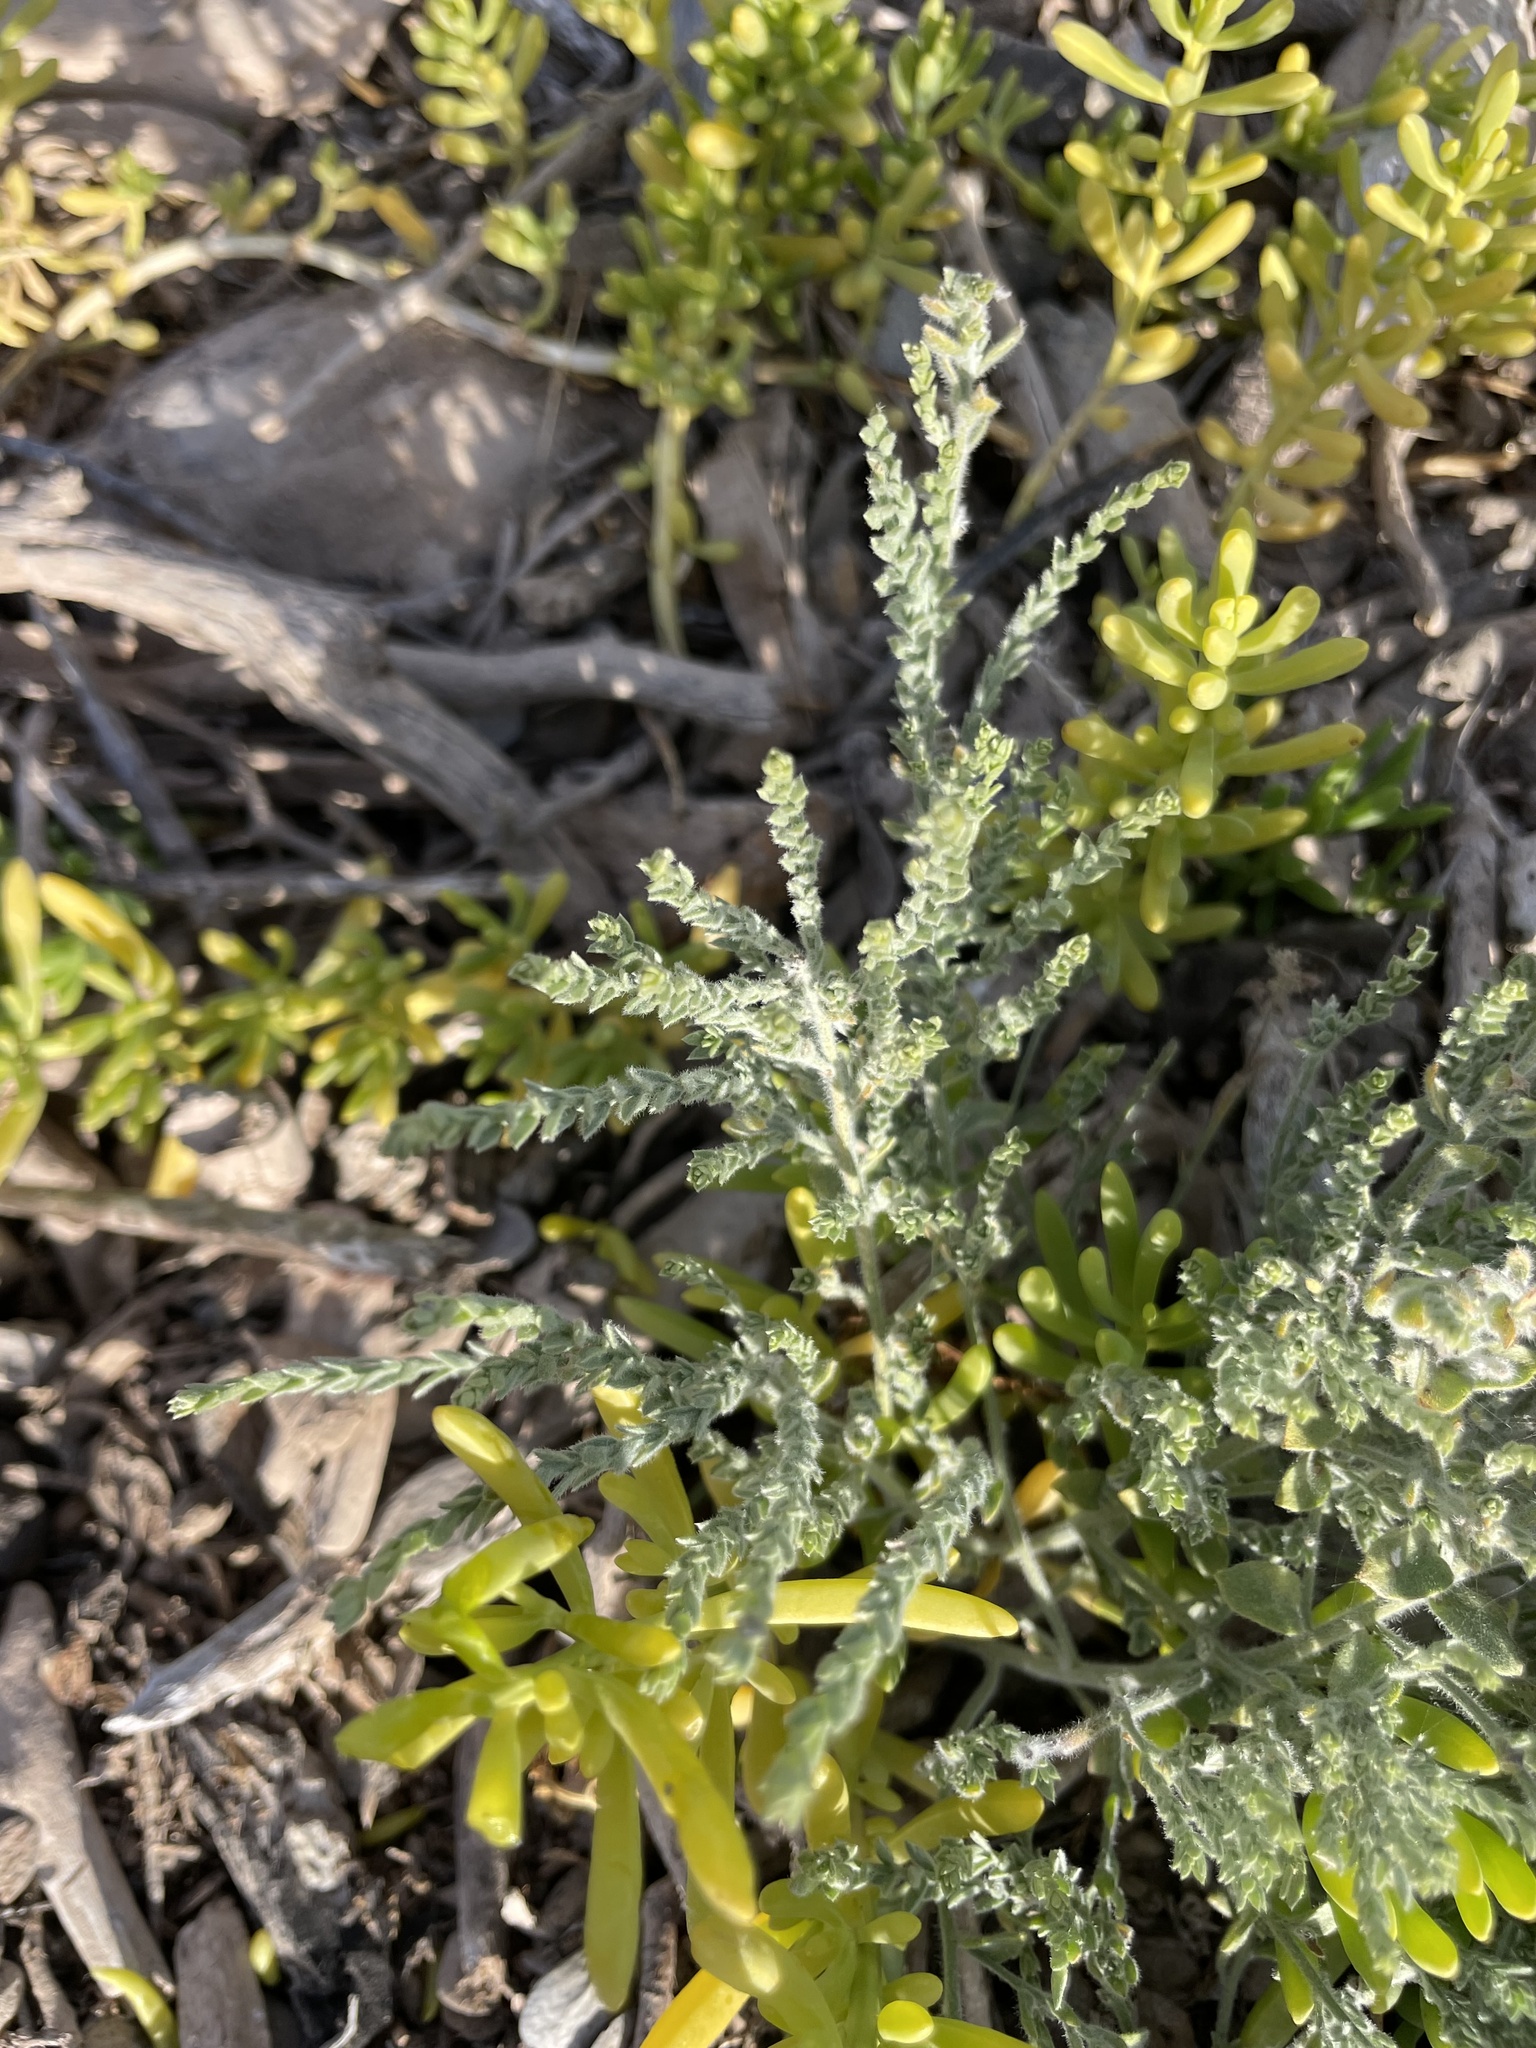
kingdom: Plantae
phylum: Tracheophyta
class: Magnoliopsida
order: Solanales
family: Convolvulaceae
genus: Cressa
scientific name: Cressa truxillensis
